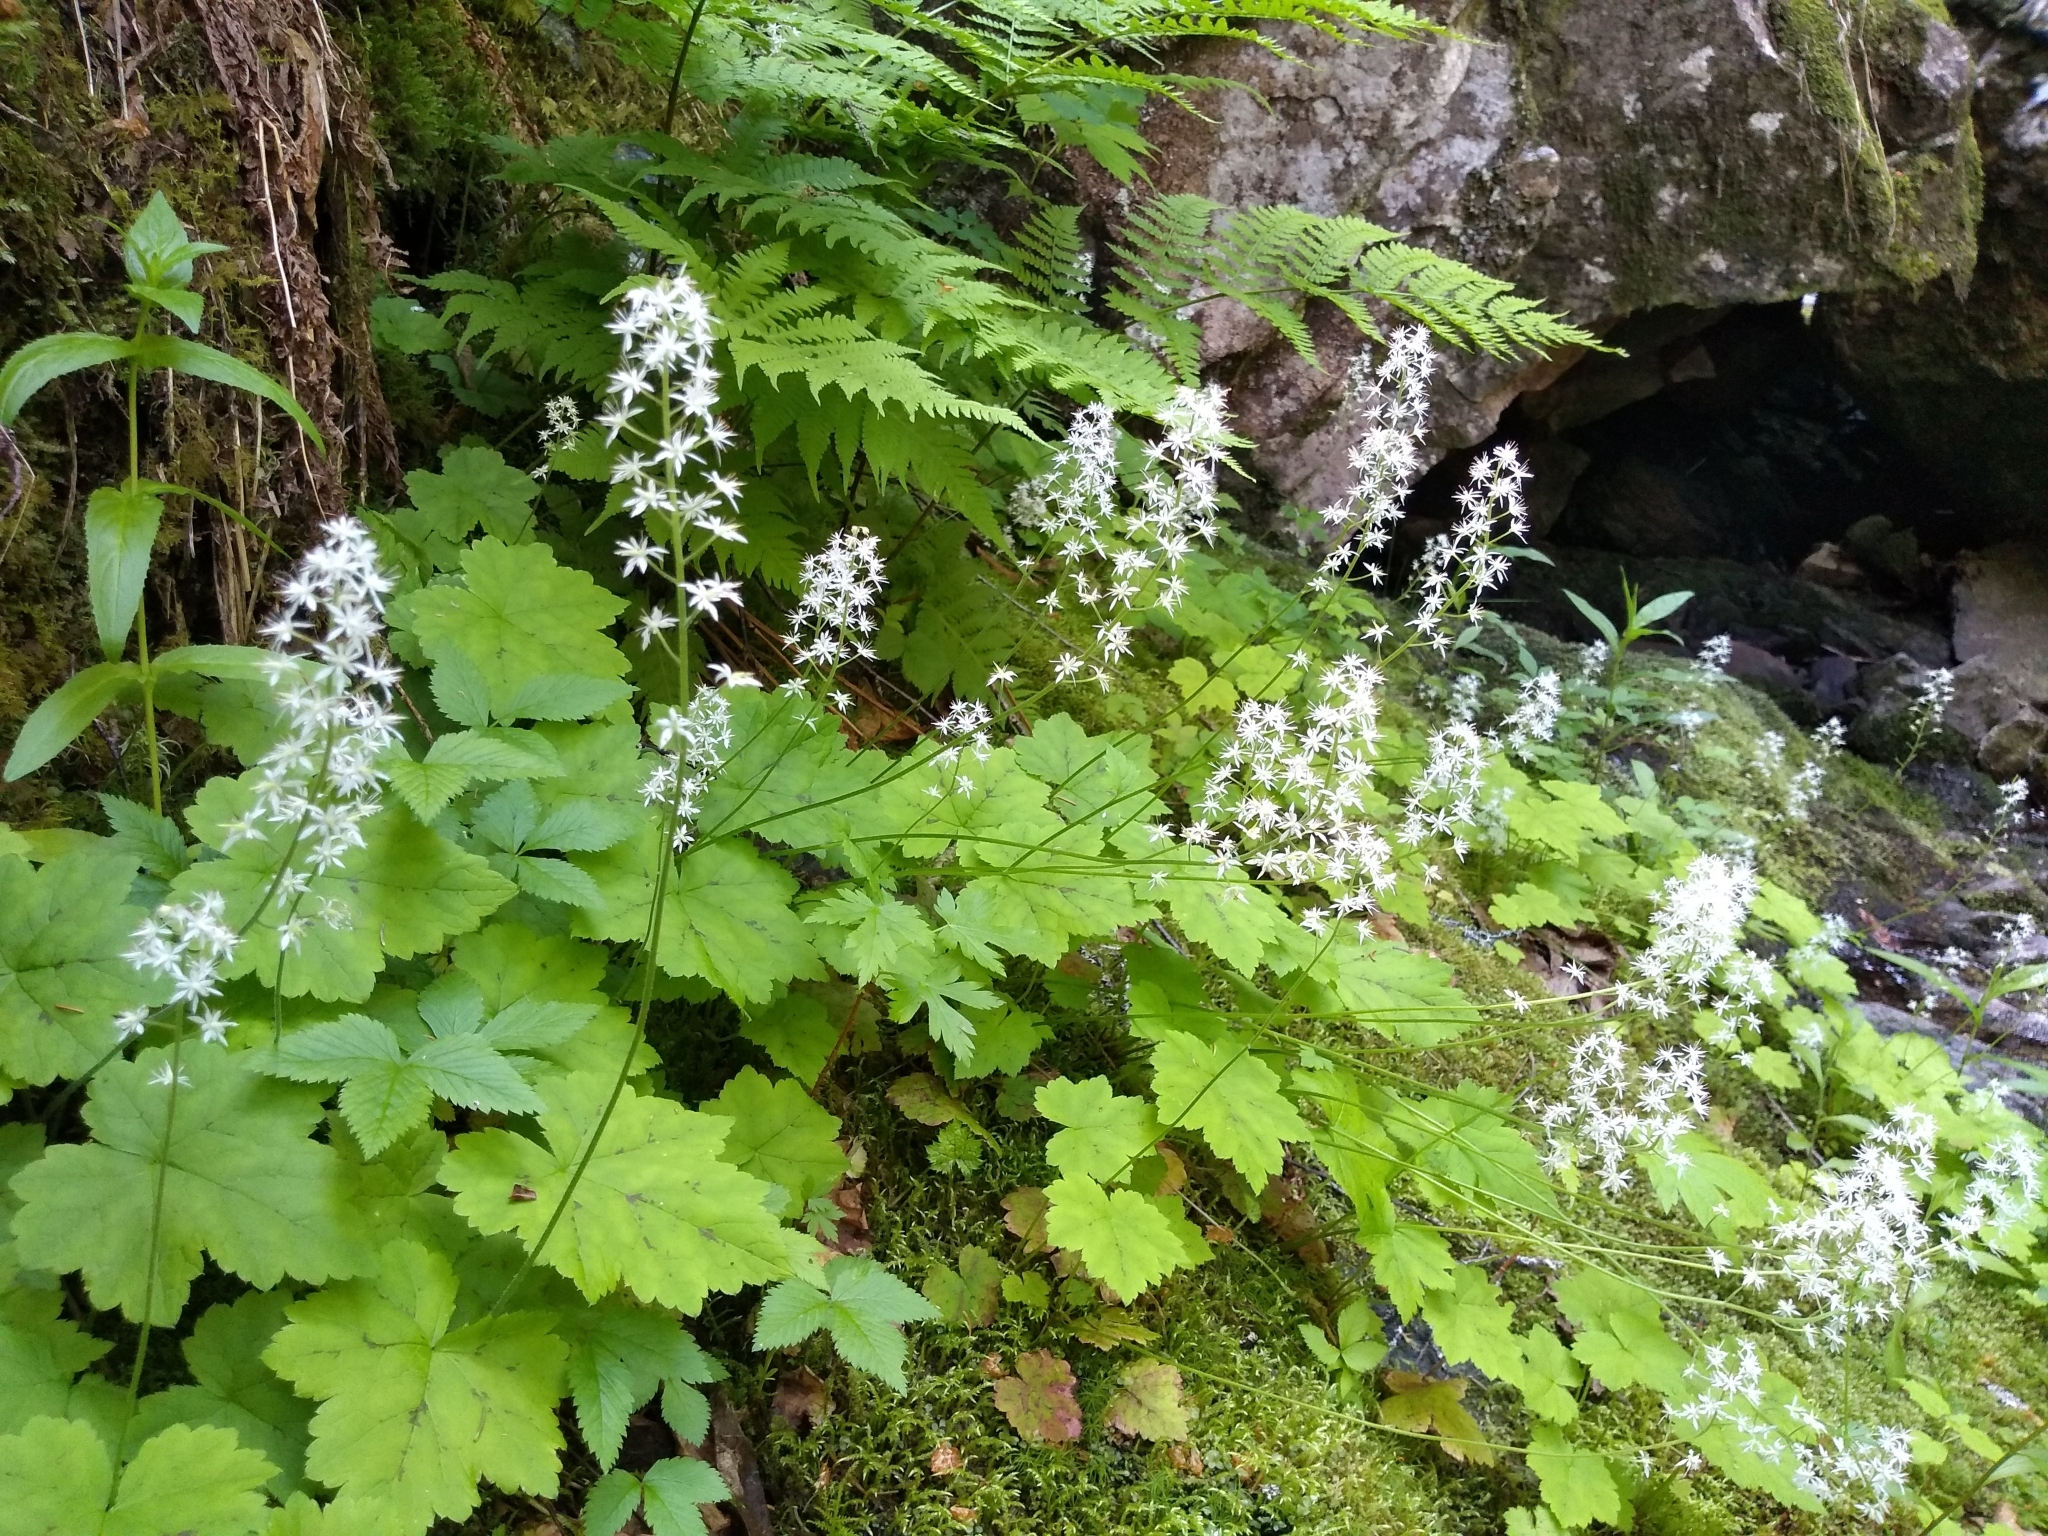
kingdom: Plantae
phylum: Tracheophyta
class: Magnoliopsida
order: Saxifragales
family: Saxifragaceae
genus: Tiarella
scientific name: Tiarella stolonifera
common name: Stoloniferous foamflower
